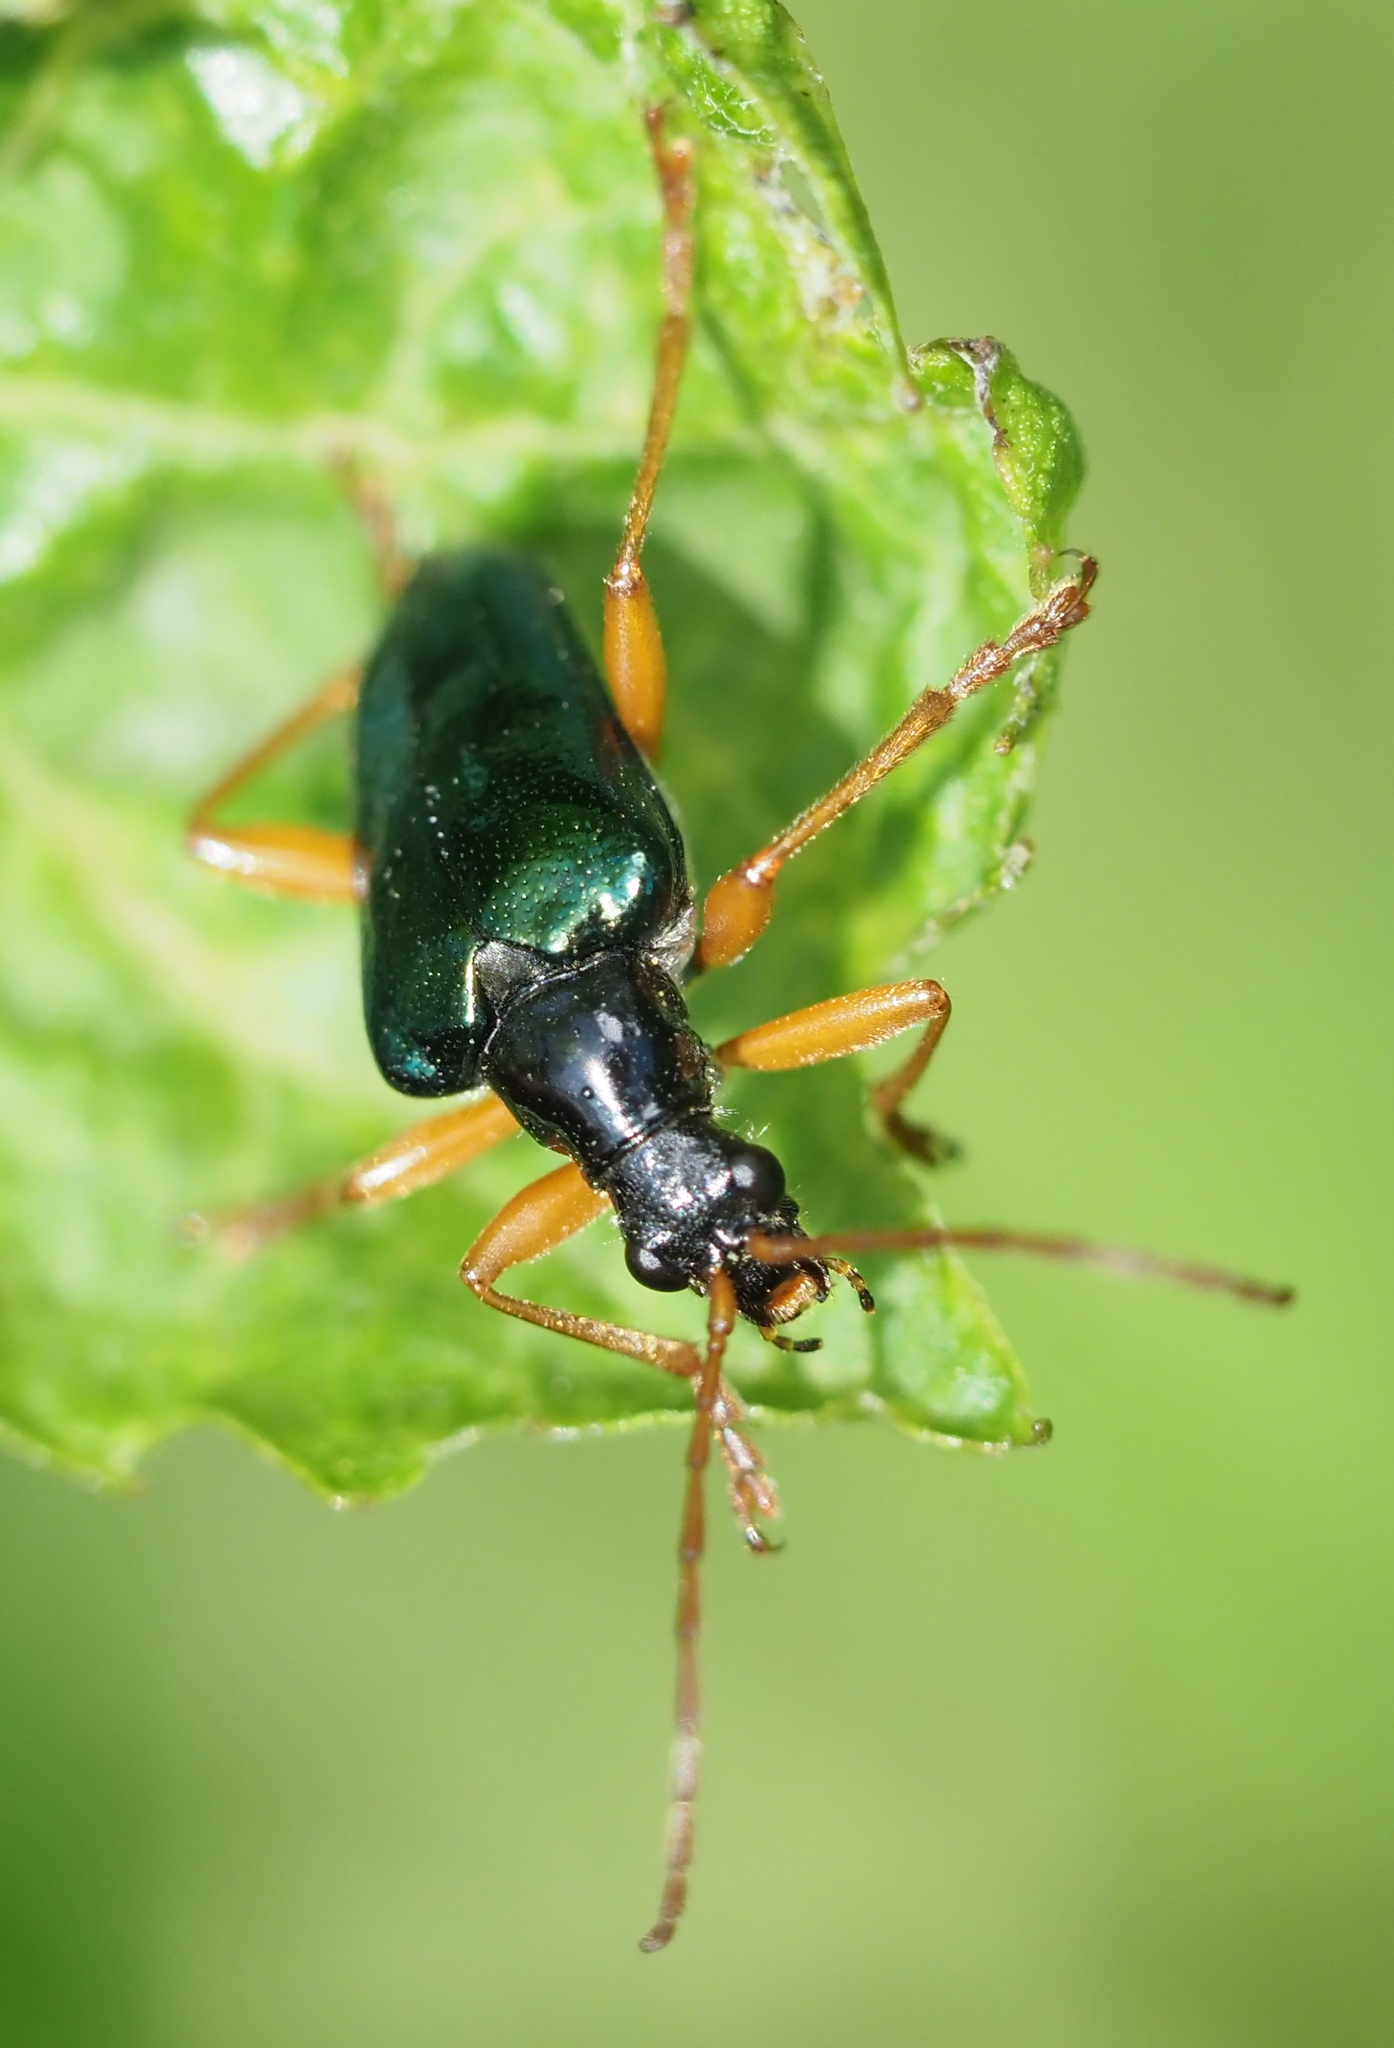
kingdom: Animalia
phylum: Arthropoda
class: Insecta
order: Coleoptera
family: Cerambycidae
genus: Gaurotes
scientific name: Gaurotes cyanipennis
